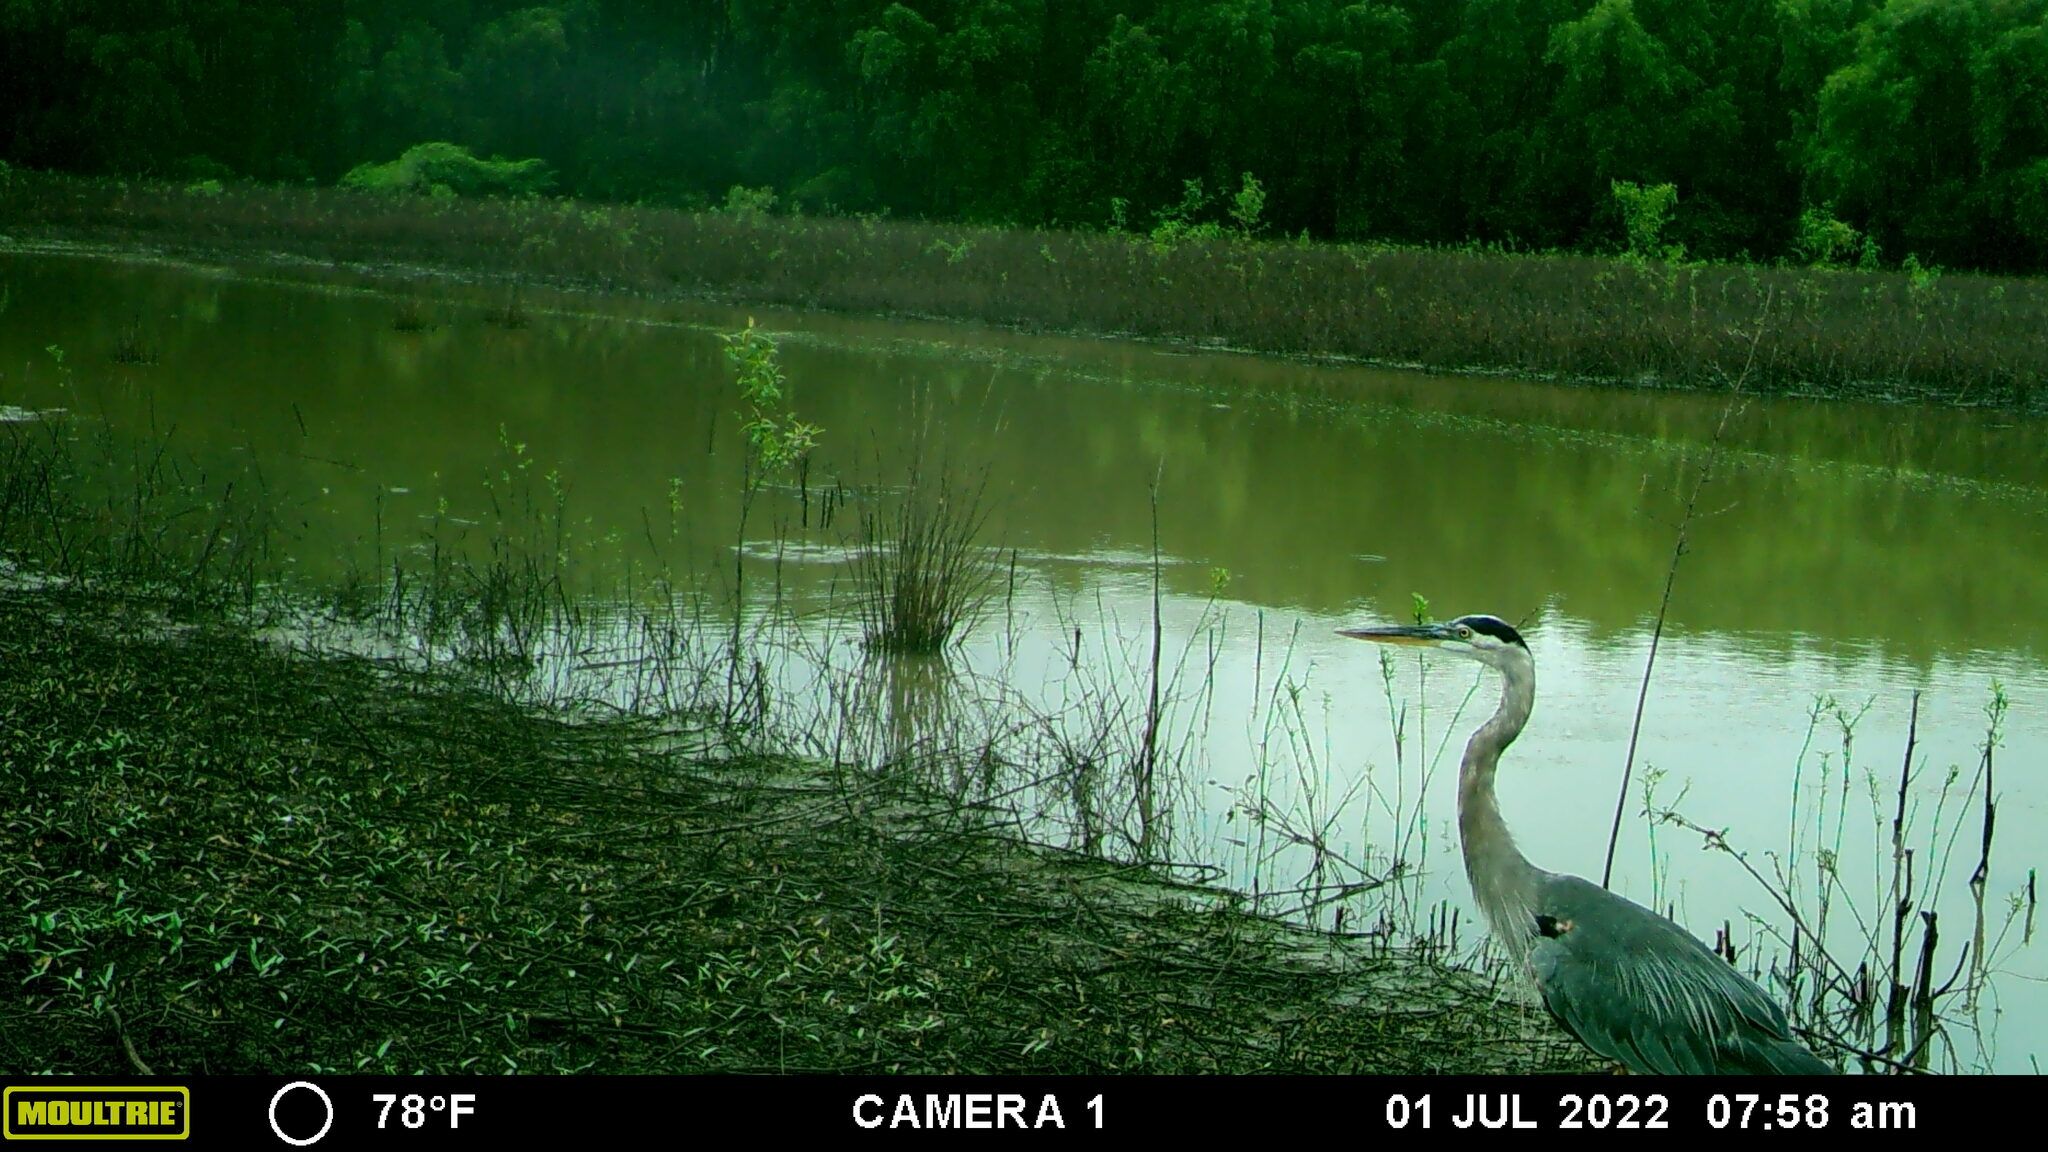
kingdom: Animalia
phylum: Chordata
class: Aves
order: Pelecaniformes
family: Ardeidae
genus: Ardea
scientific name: Ardea herodias
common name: Great blue heron
